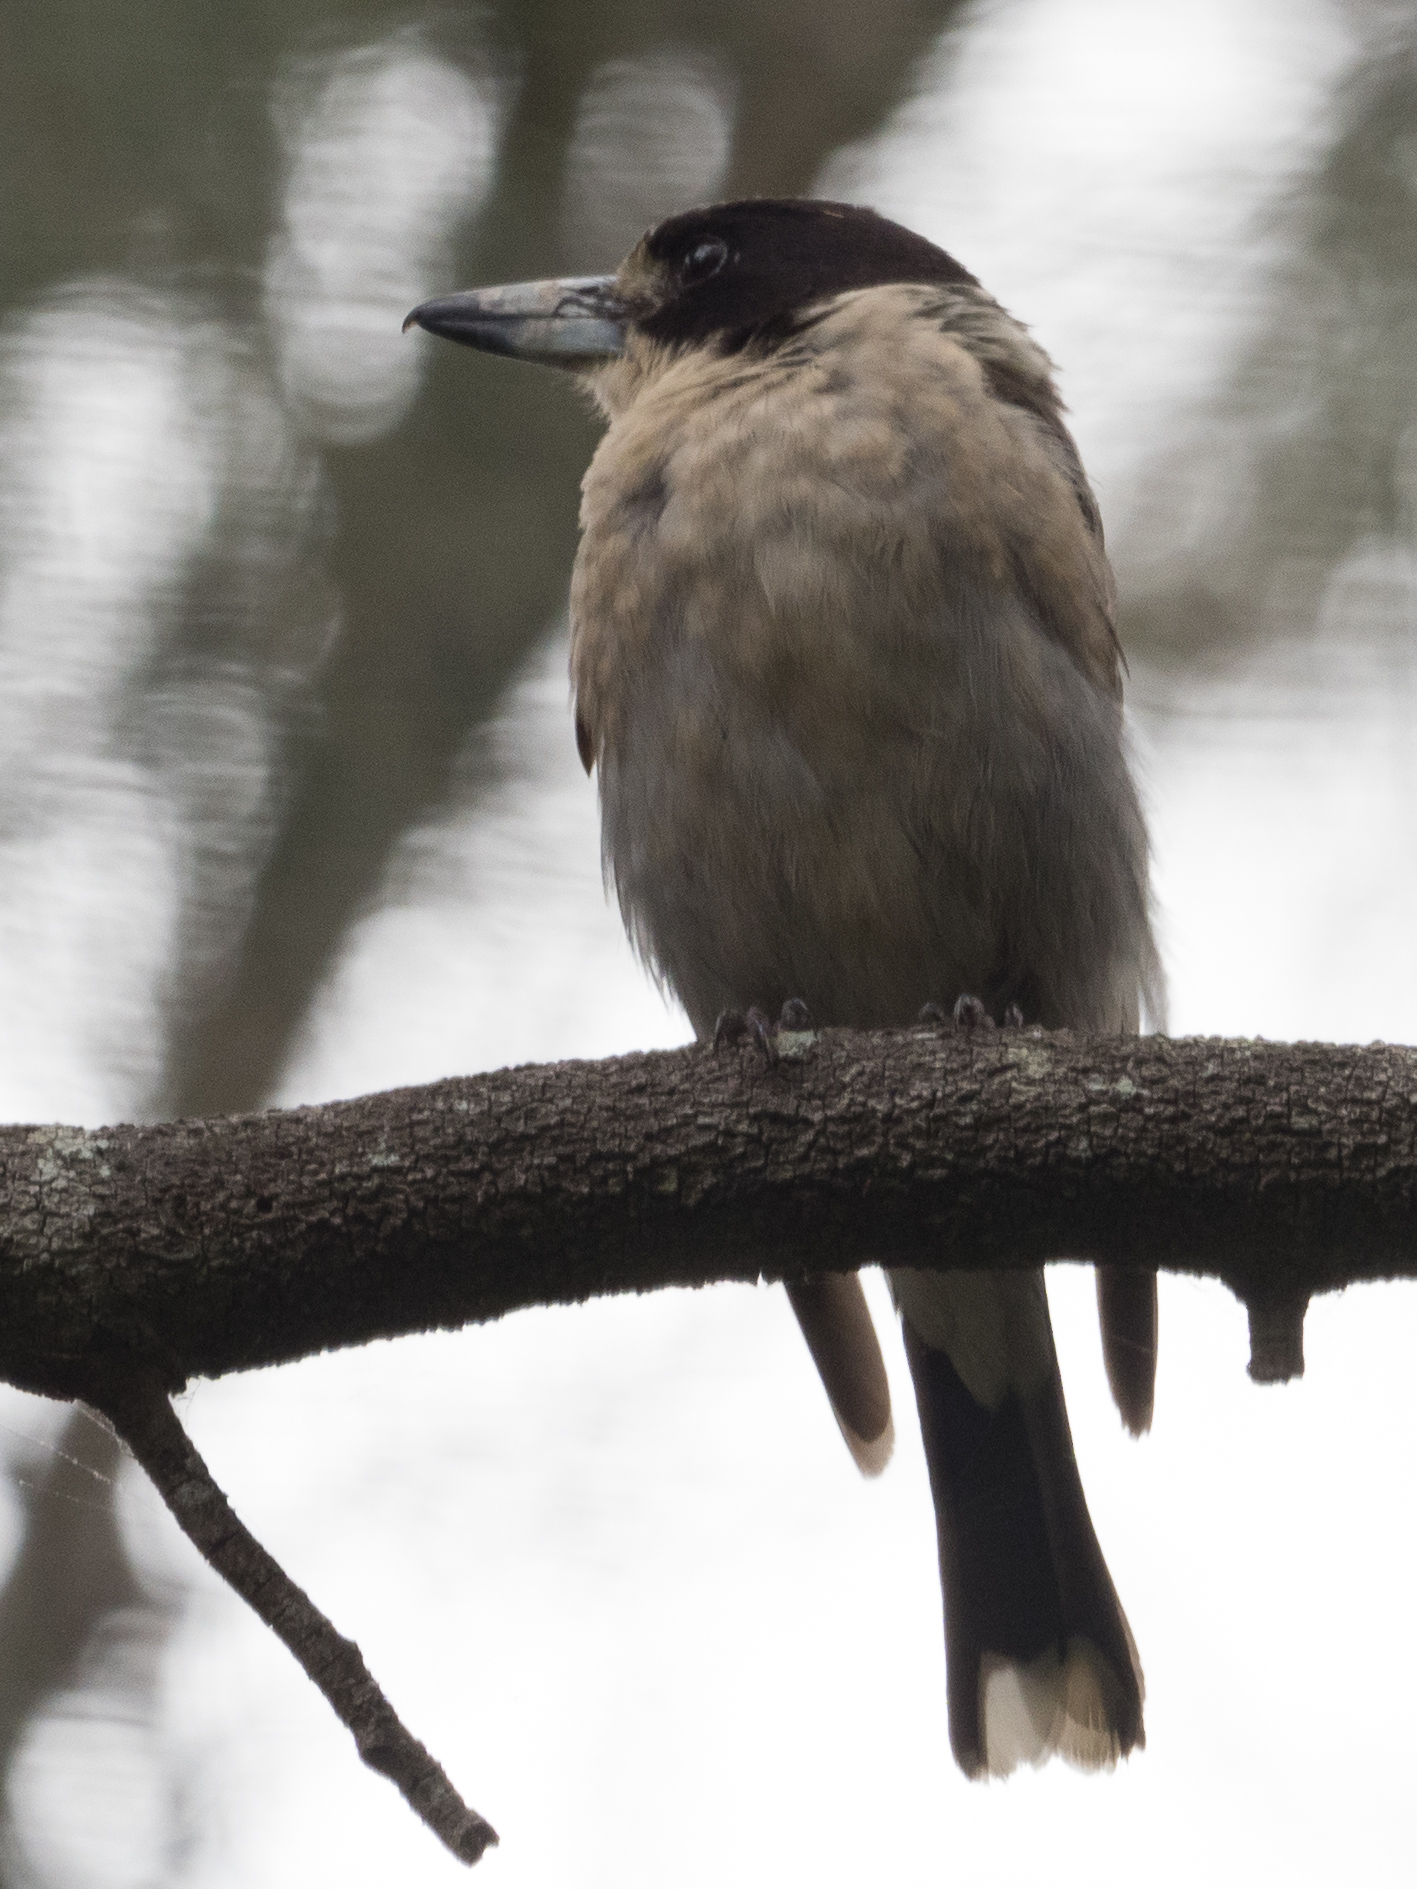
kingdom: Animalia
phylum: Chordata
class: Aves
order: Passeriformes
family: Cracticidae
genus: Cracticus
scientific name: Cracticus torquatus
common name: Grey butcherbird
